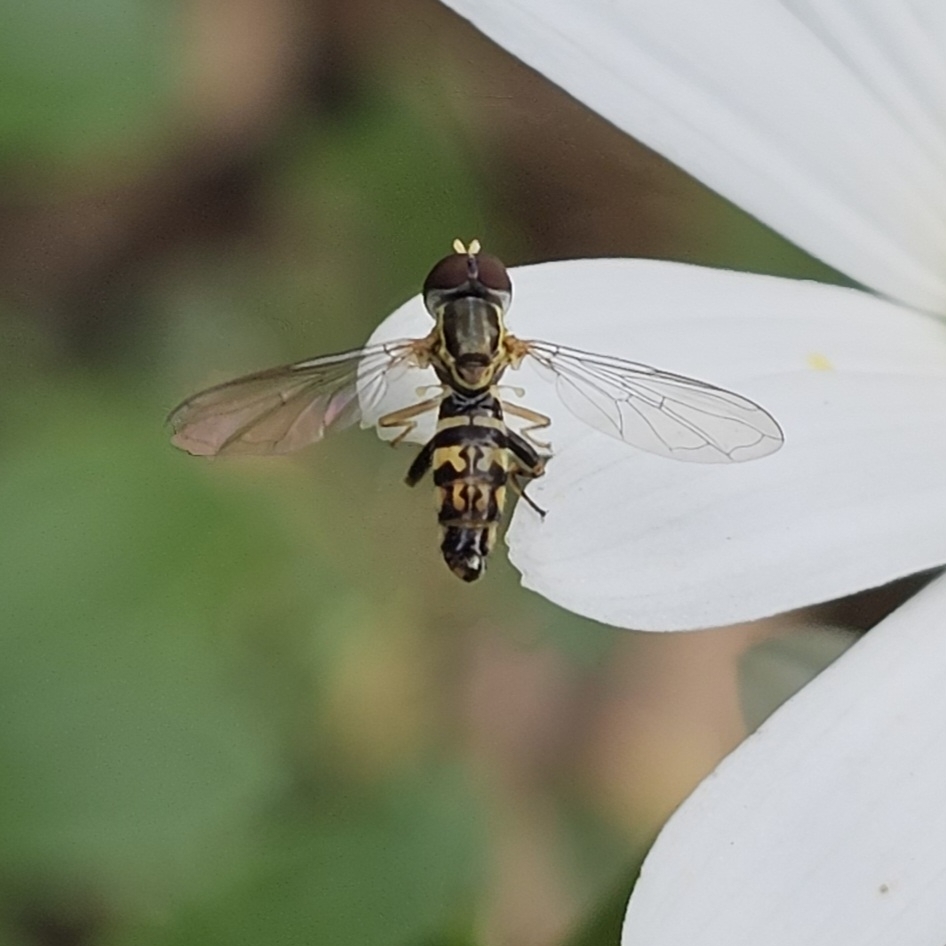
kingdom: Animalia
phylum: Arthropoda
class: Insecta
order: Diptera
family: Syrphidae
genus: Toxomerus
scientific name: Toxomerus geminatus
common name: Eastern calligrapher
